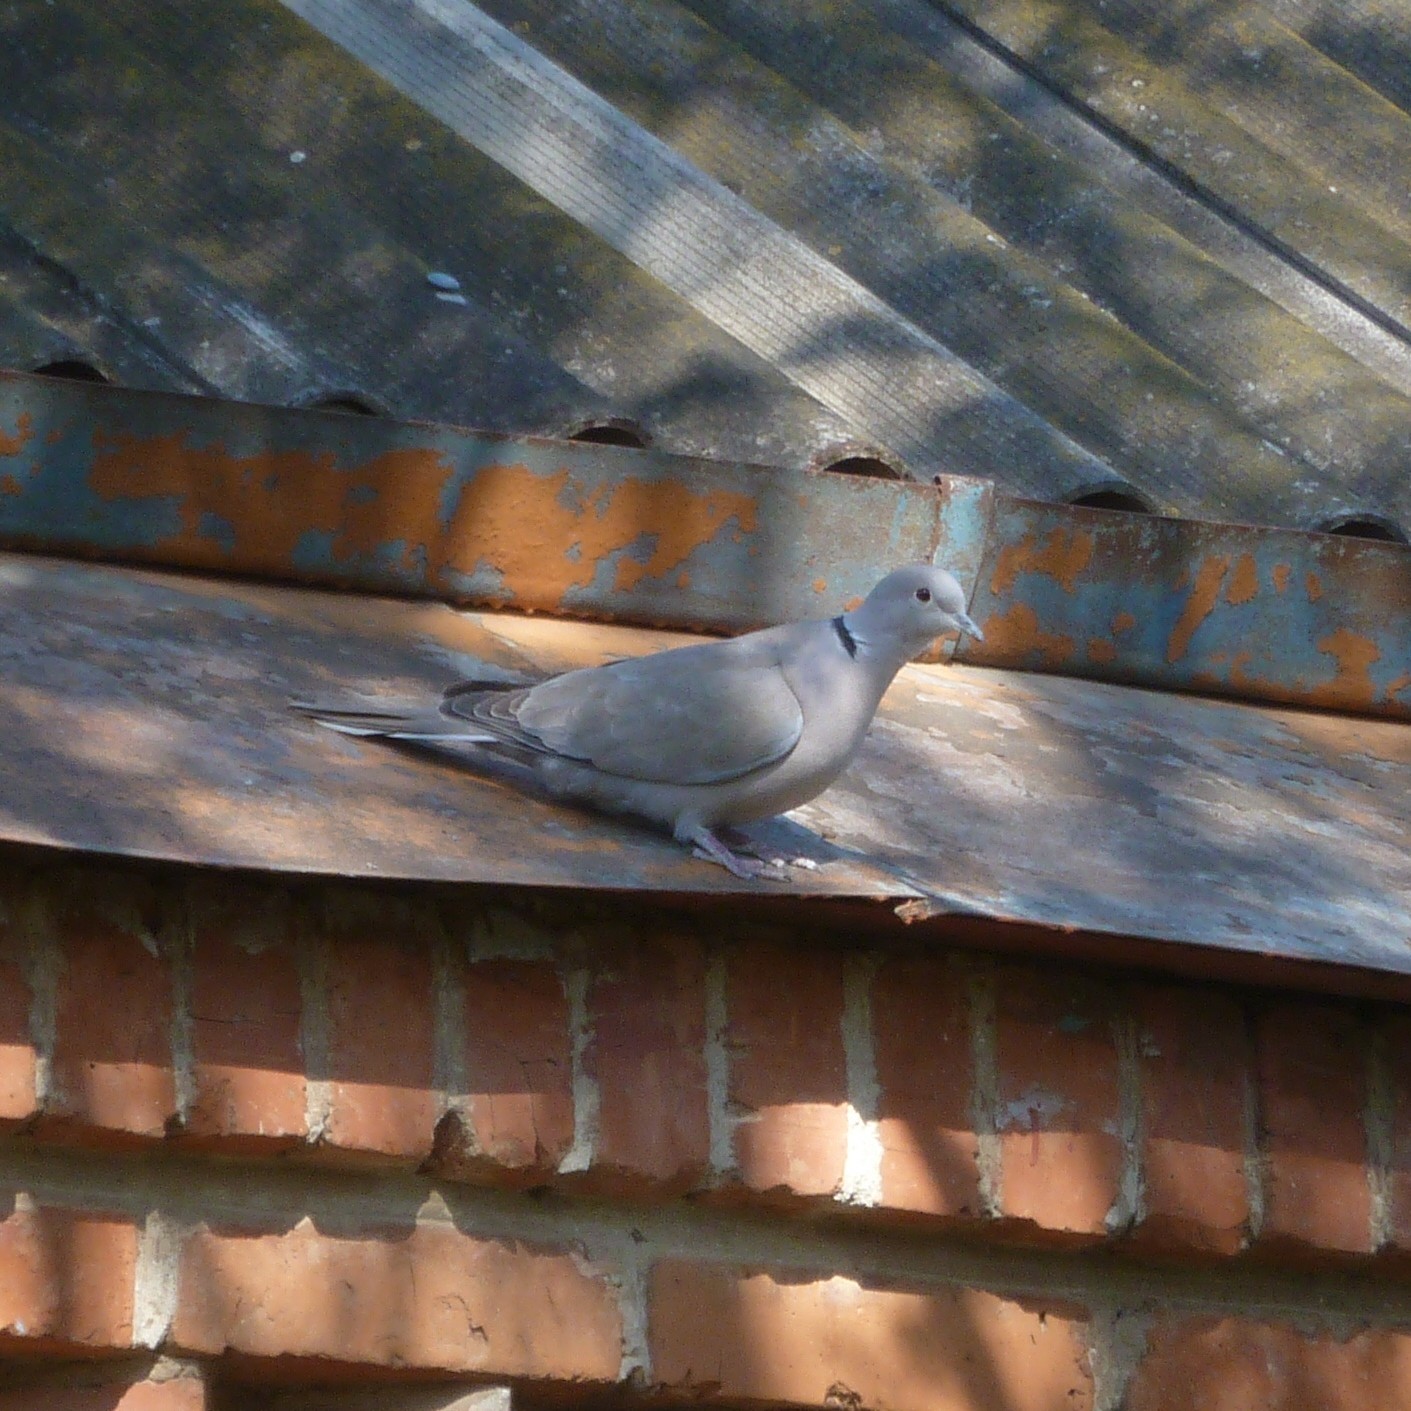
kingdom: Animalia
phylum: Chordata
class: Aves
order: Columbiformes
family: Columbidae
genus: Streptopelia
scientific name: Streptopelia decaocto
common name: Eurasian collared dove
